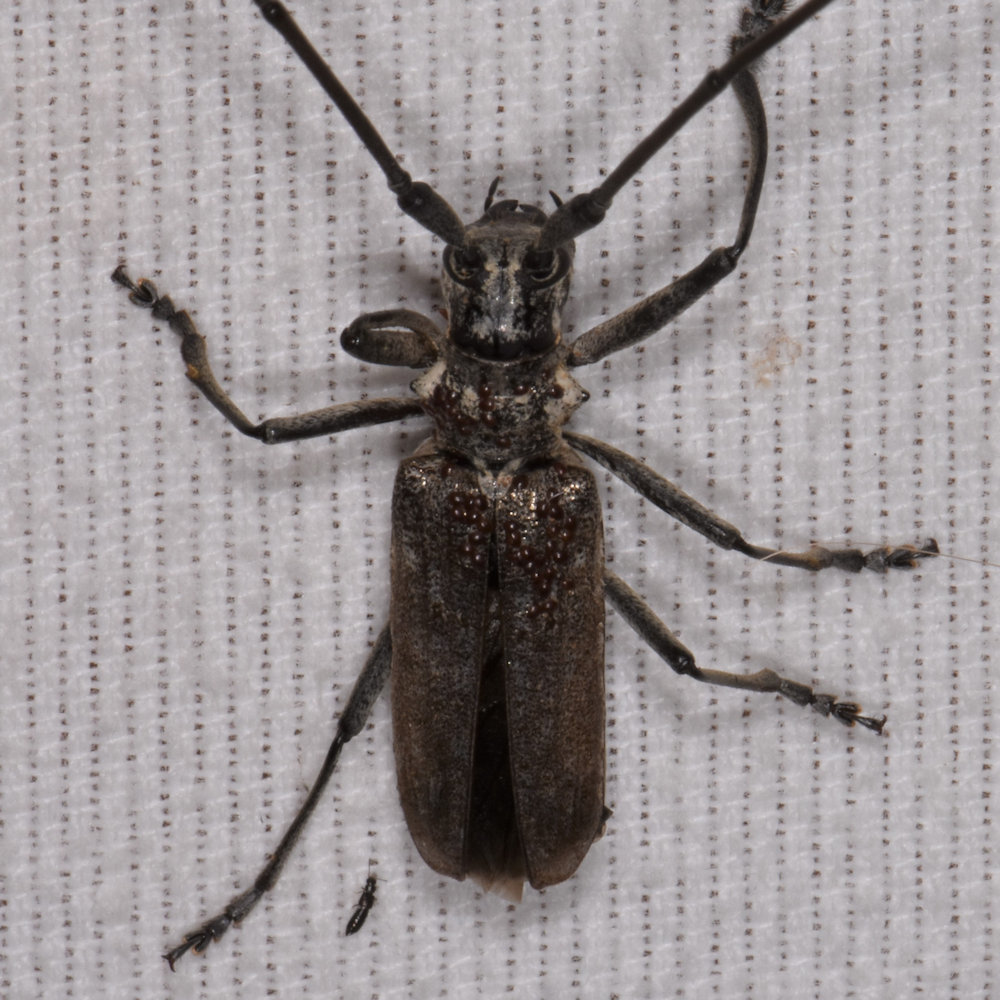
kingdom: Animalia
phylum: Arthropoda
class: Insecta
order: Coleoptera
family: Cerambycidae
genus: Monochamus
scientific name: Monochamus notatus
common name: Northeastern pine sawyer beetle
